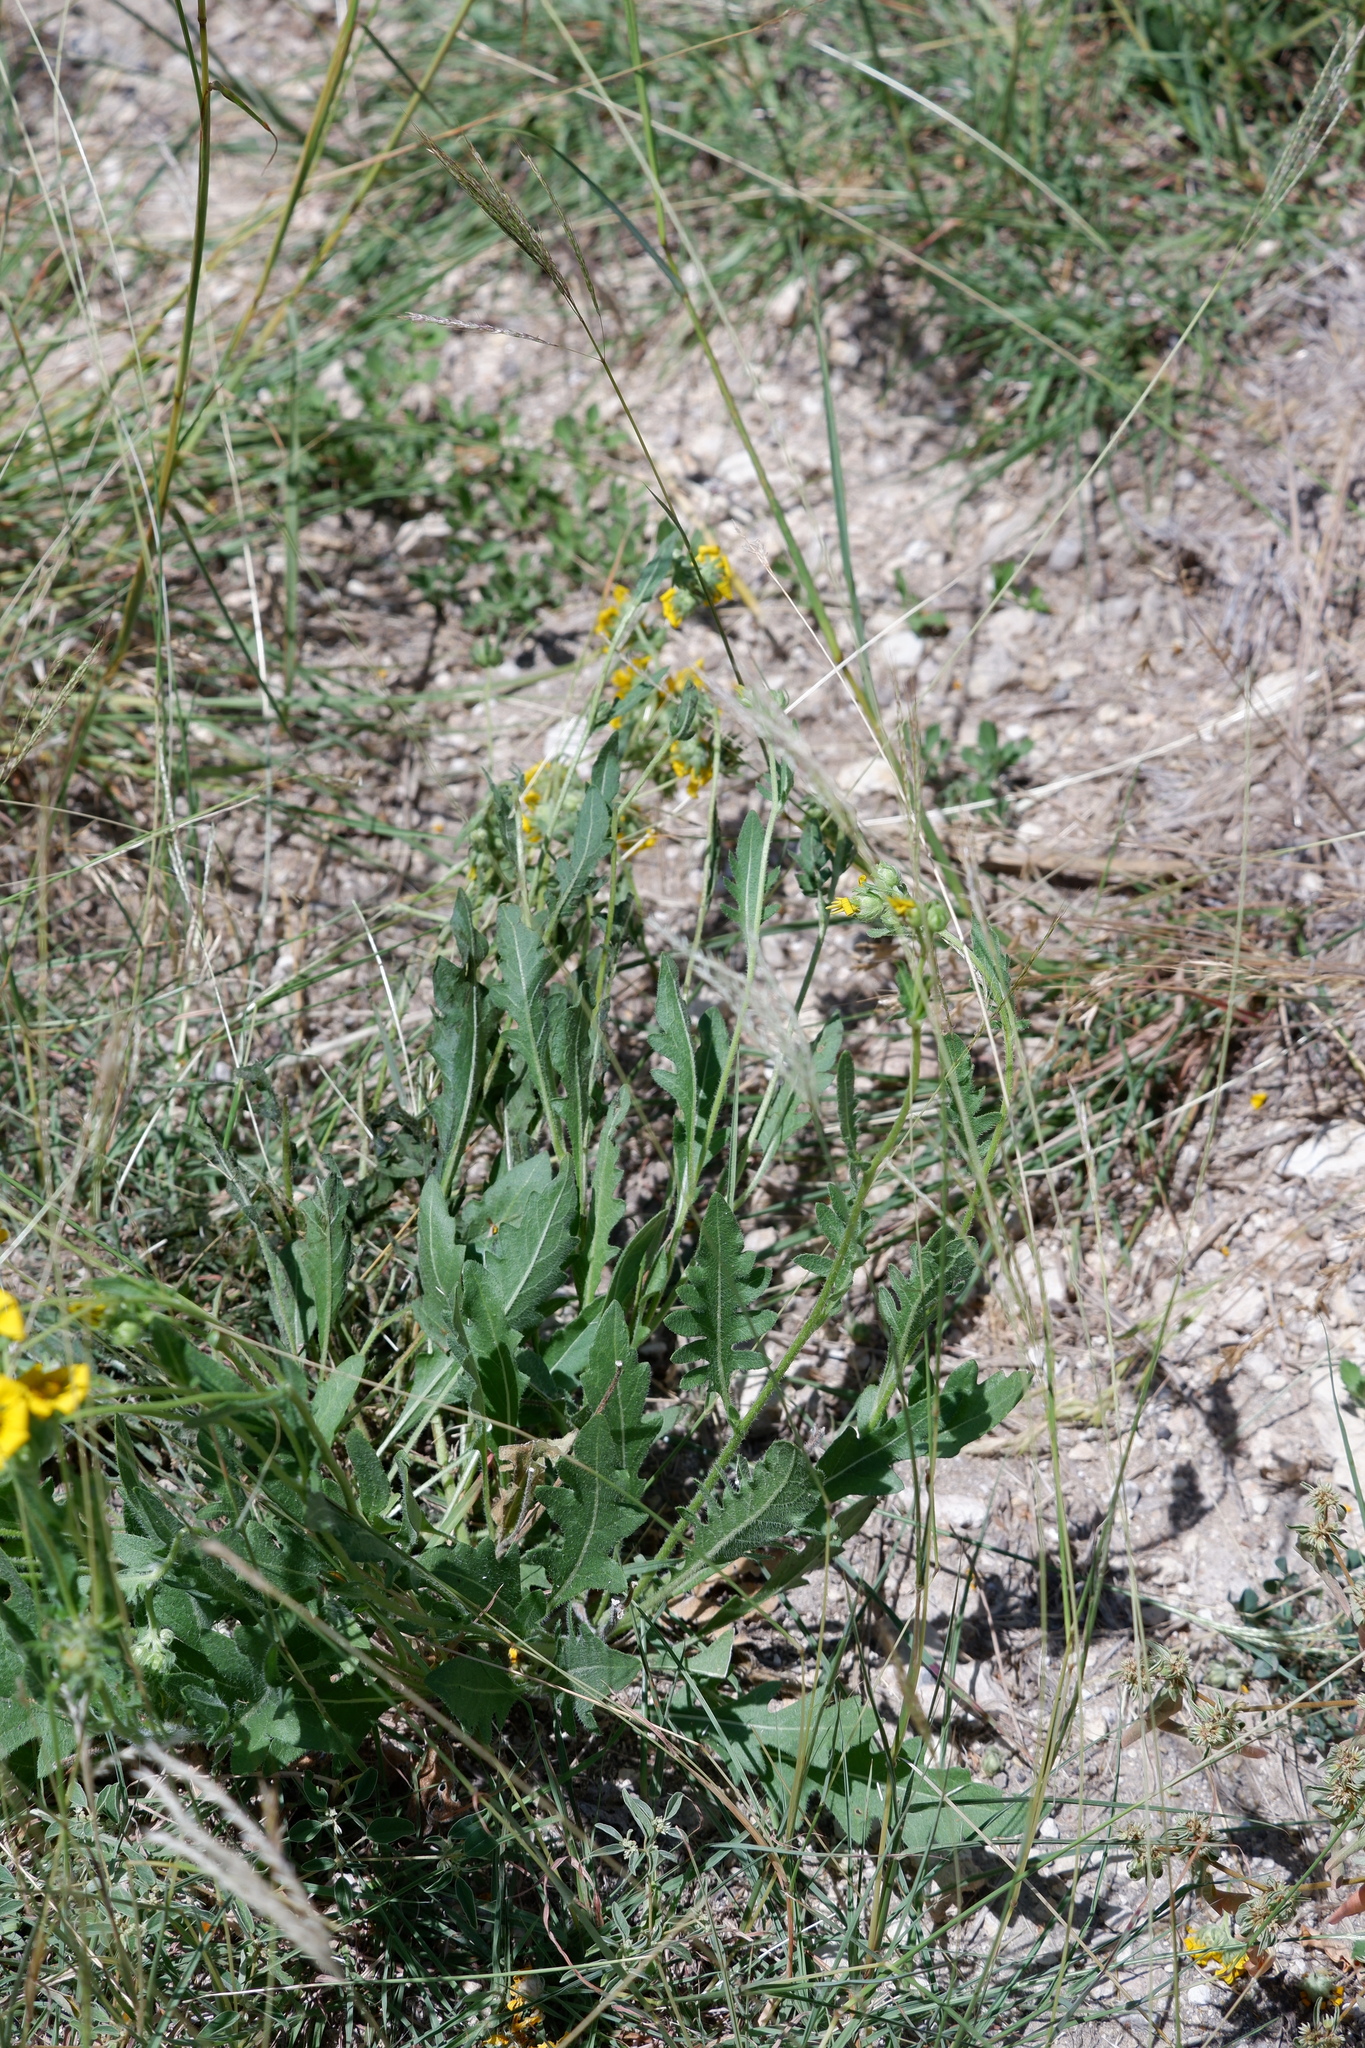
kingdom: Plantae
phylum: Tracheophyta
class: Magnoliopsida
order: Asterales
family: Asteraceae
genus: Engelmannia
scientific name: Engelmannia peristenia
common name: Engelmann's daisy
